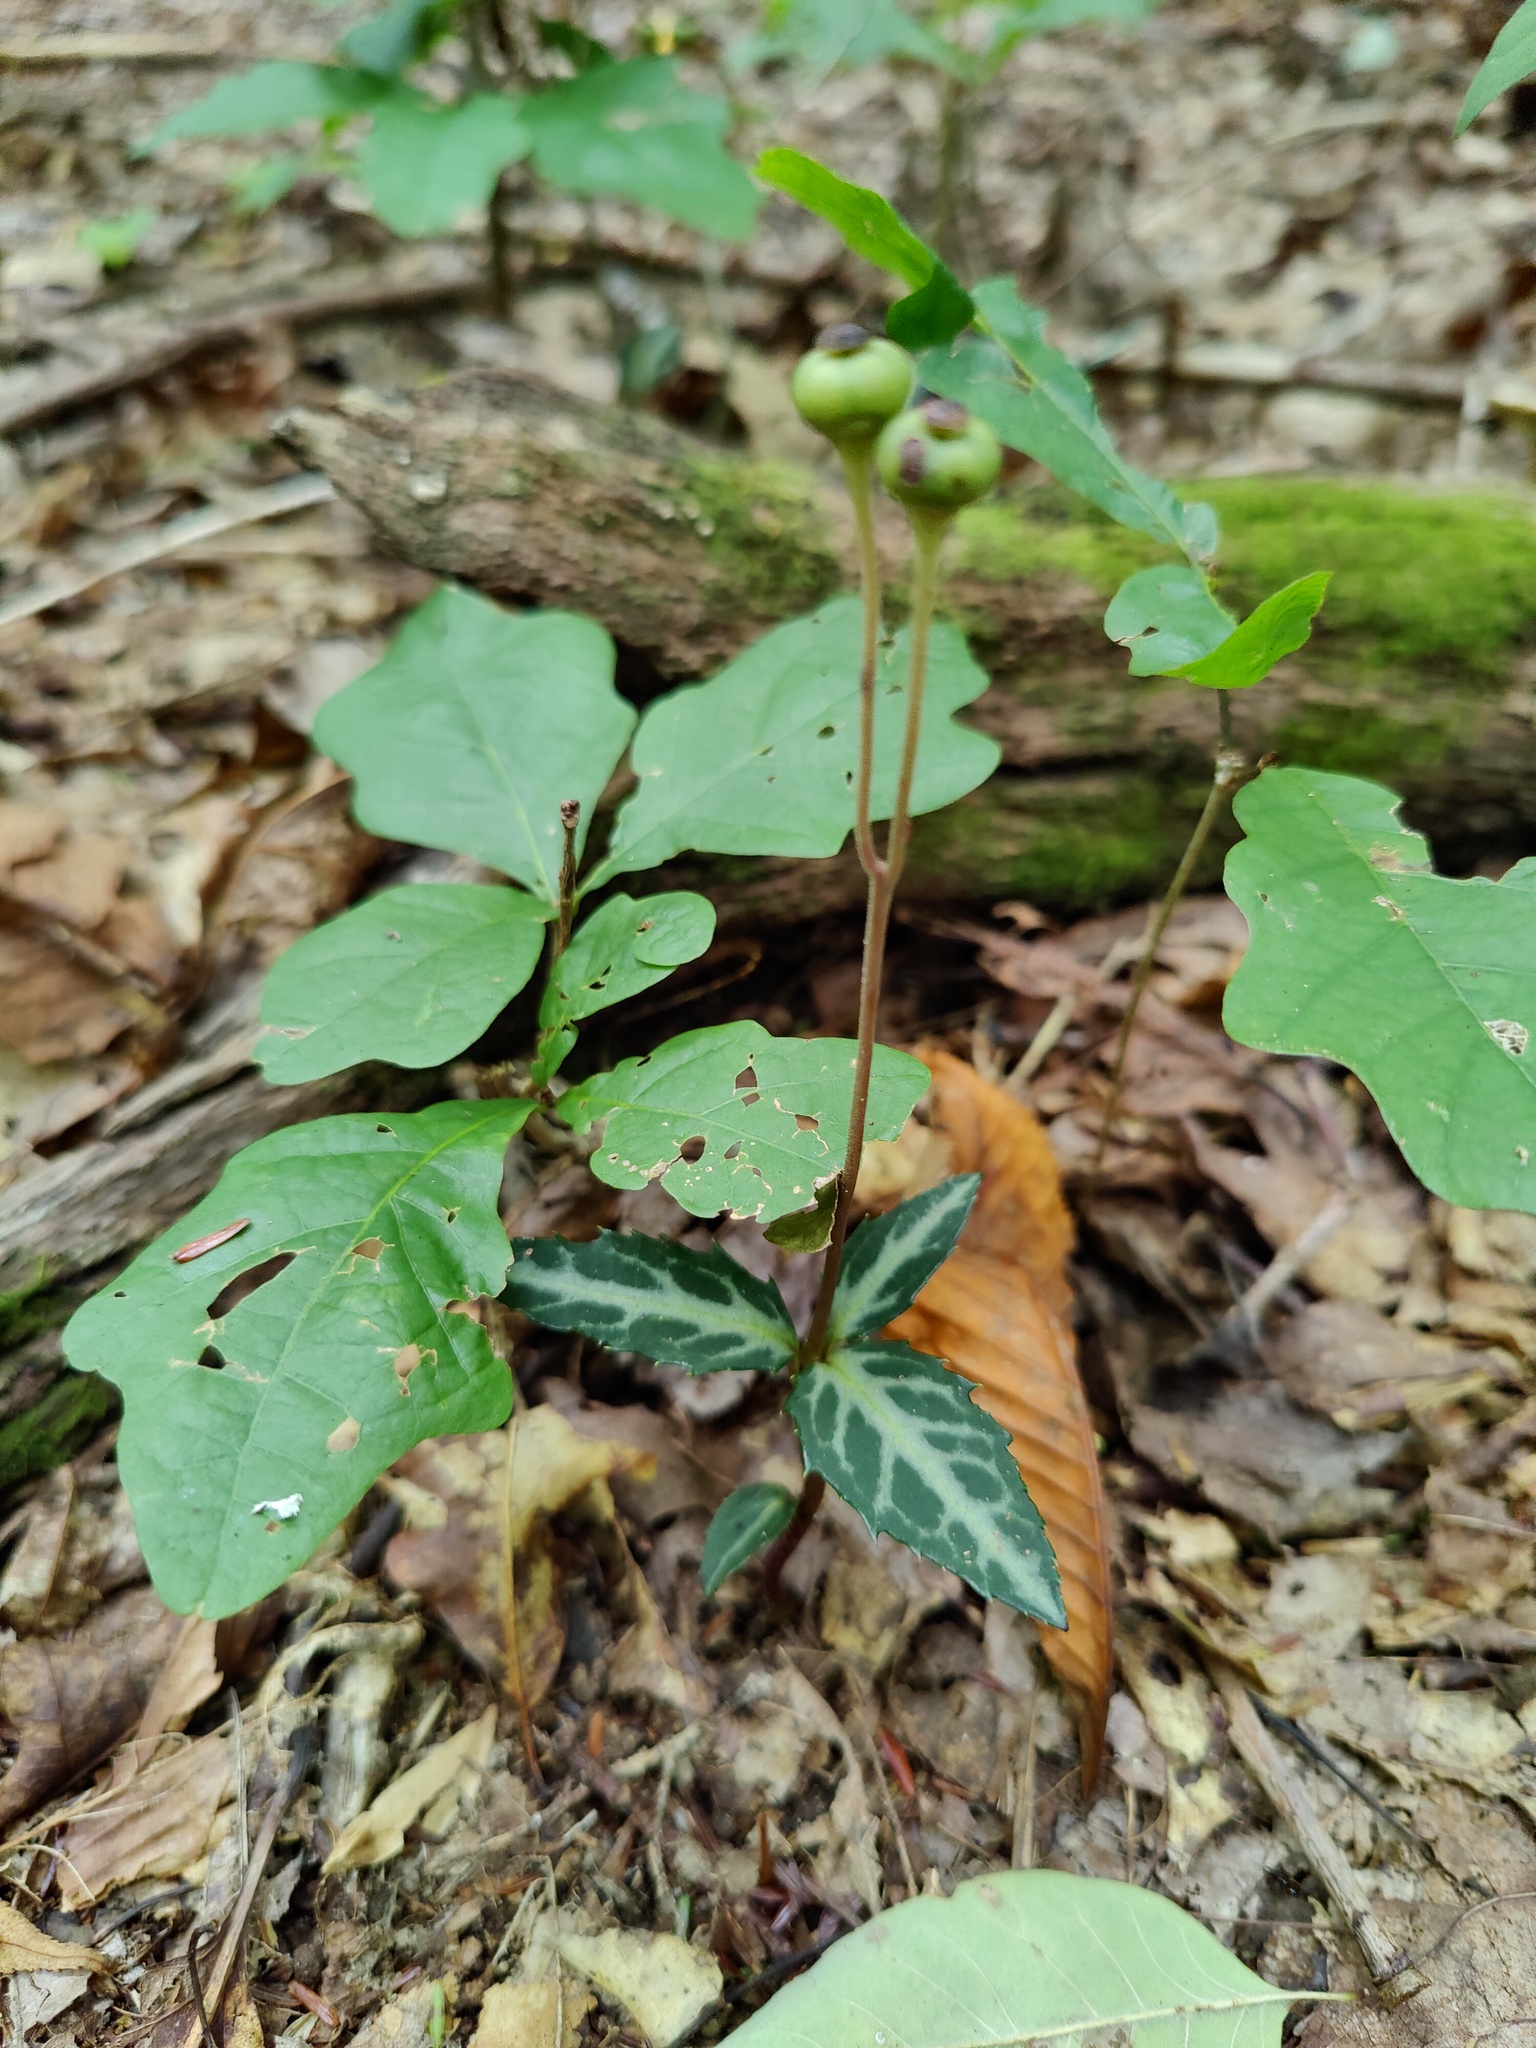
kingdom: Plantae
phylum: Tracheophyta
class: Magnoliopsida
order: Ericales
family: Ericaceae
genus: Chimaphila
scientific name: Chimaphila maculata
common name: Spotted pipsissewa
